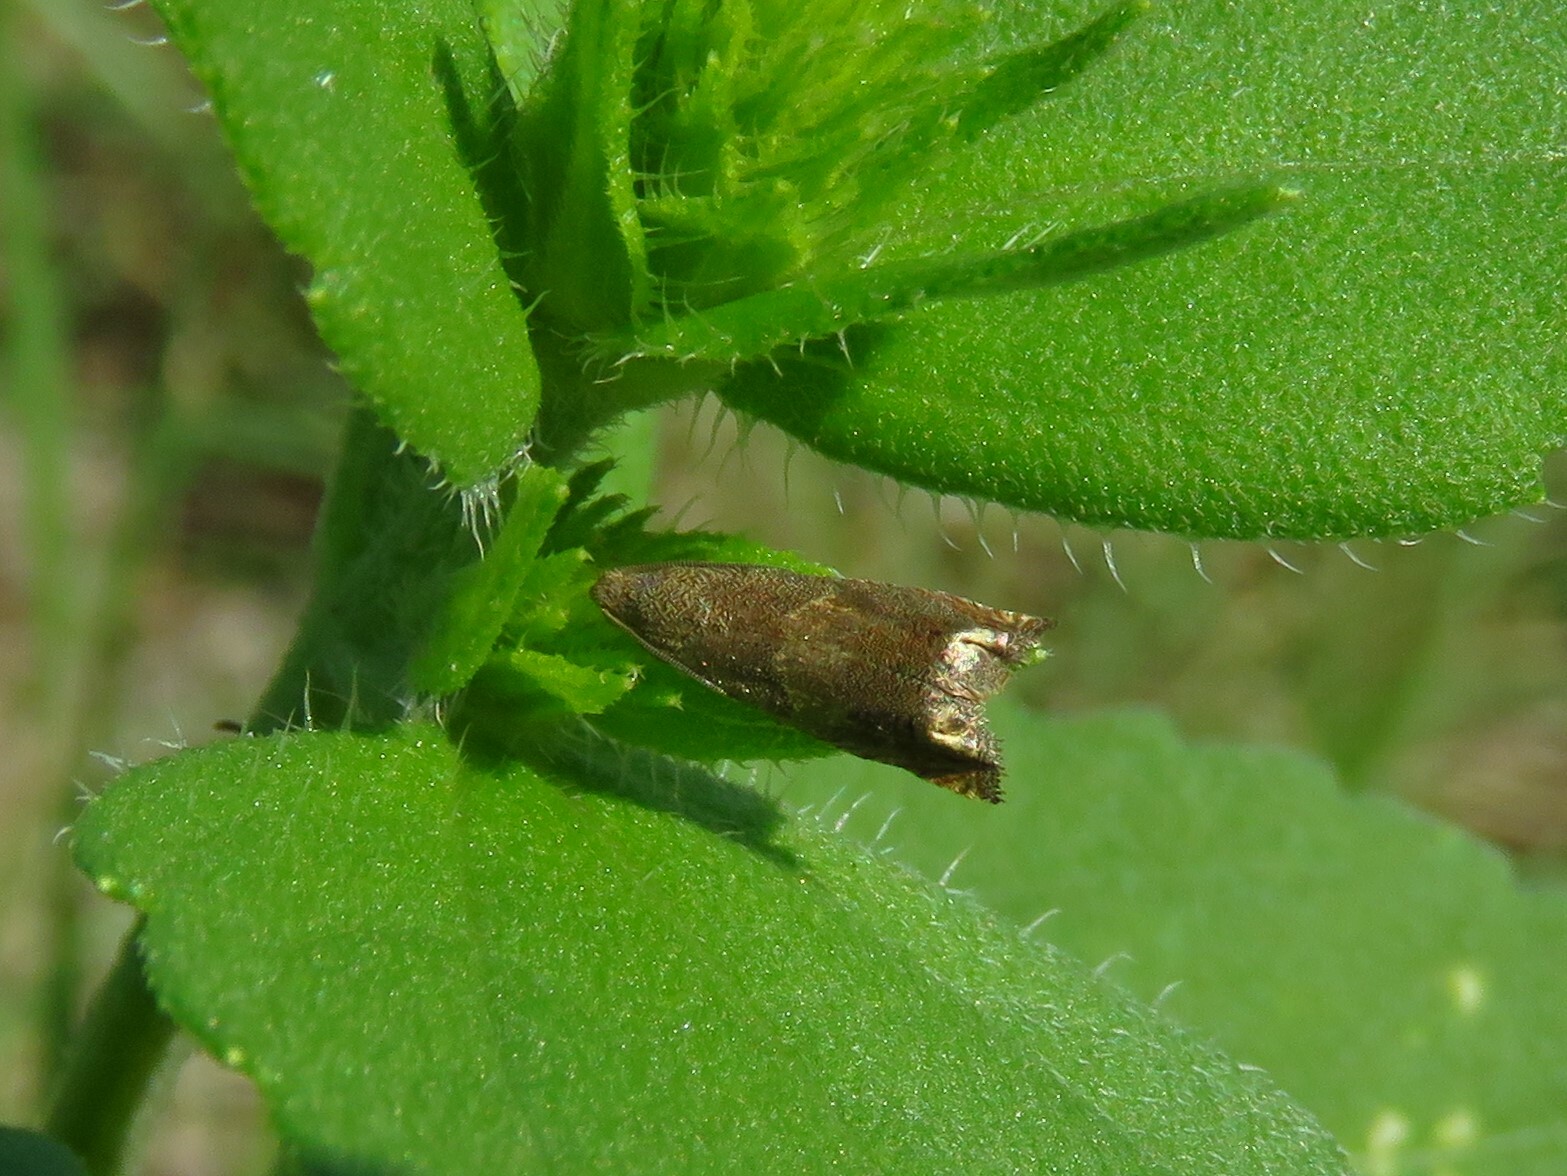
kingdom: Animalia
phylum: Arthropoda
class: Insecta
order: Lepidoptera
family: Tortricidae
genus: Epiblema
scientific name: Epiblema strenuana
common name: Ragweed borer moth
